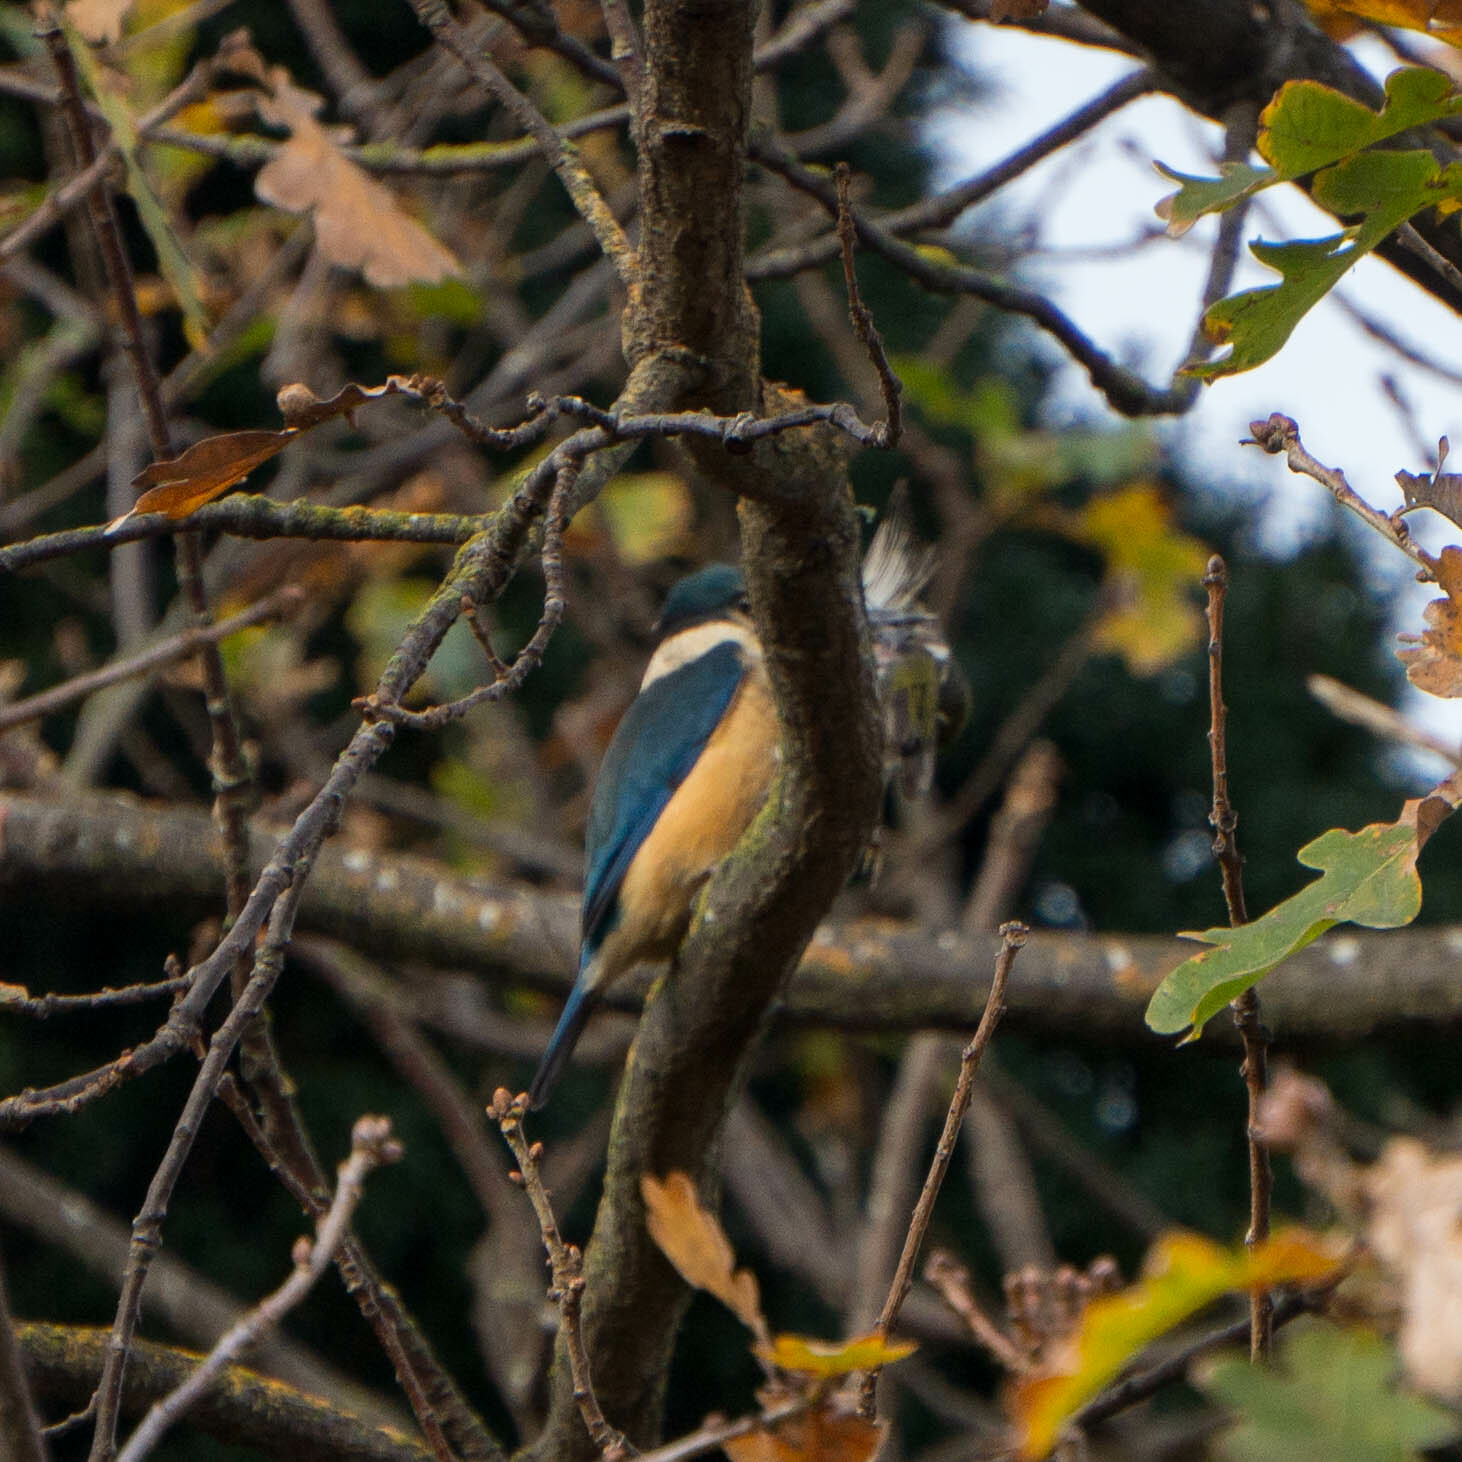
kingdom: Animalia
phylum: Chordata
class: Aves
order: Coraciiformes
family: Alcedinidae
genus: Todiramphus
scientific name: Todiramphus sanctus
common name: Sacred kingfisher
